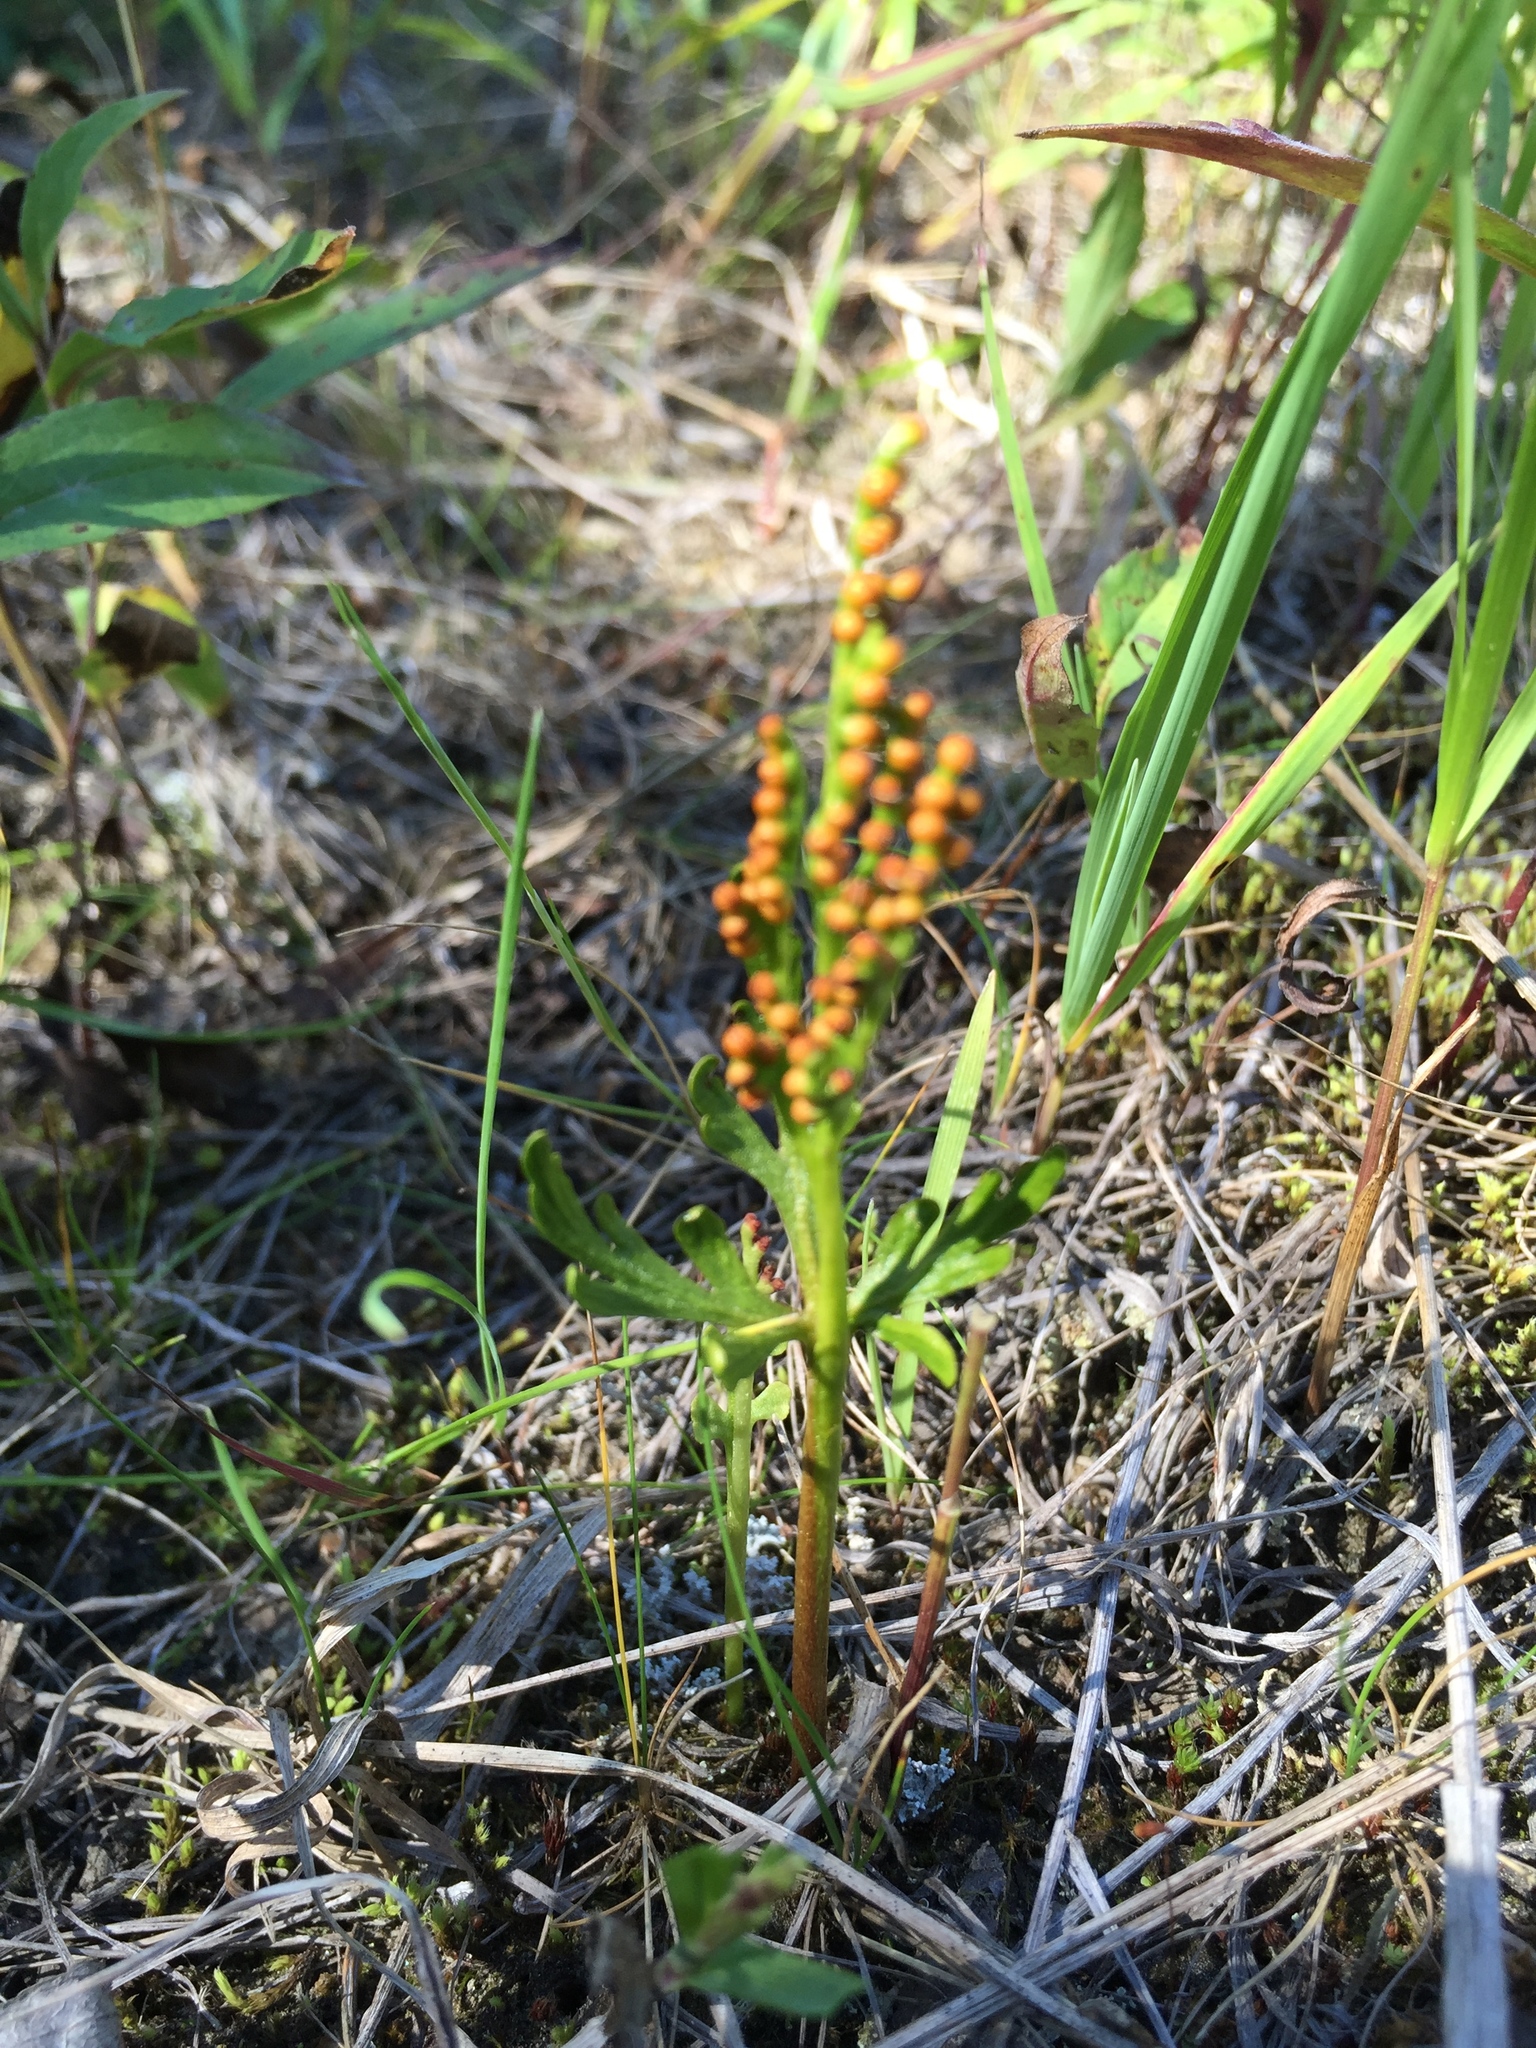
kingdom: Plantae
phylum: Tracheophyta
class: Polypodiopsida
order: Ophioglossales
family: Ophioglossaceae
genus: Botrychium
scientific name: Botrychium lanceolatum
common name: Lance-leaved moonwort
